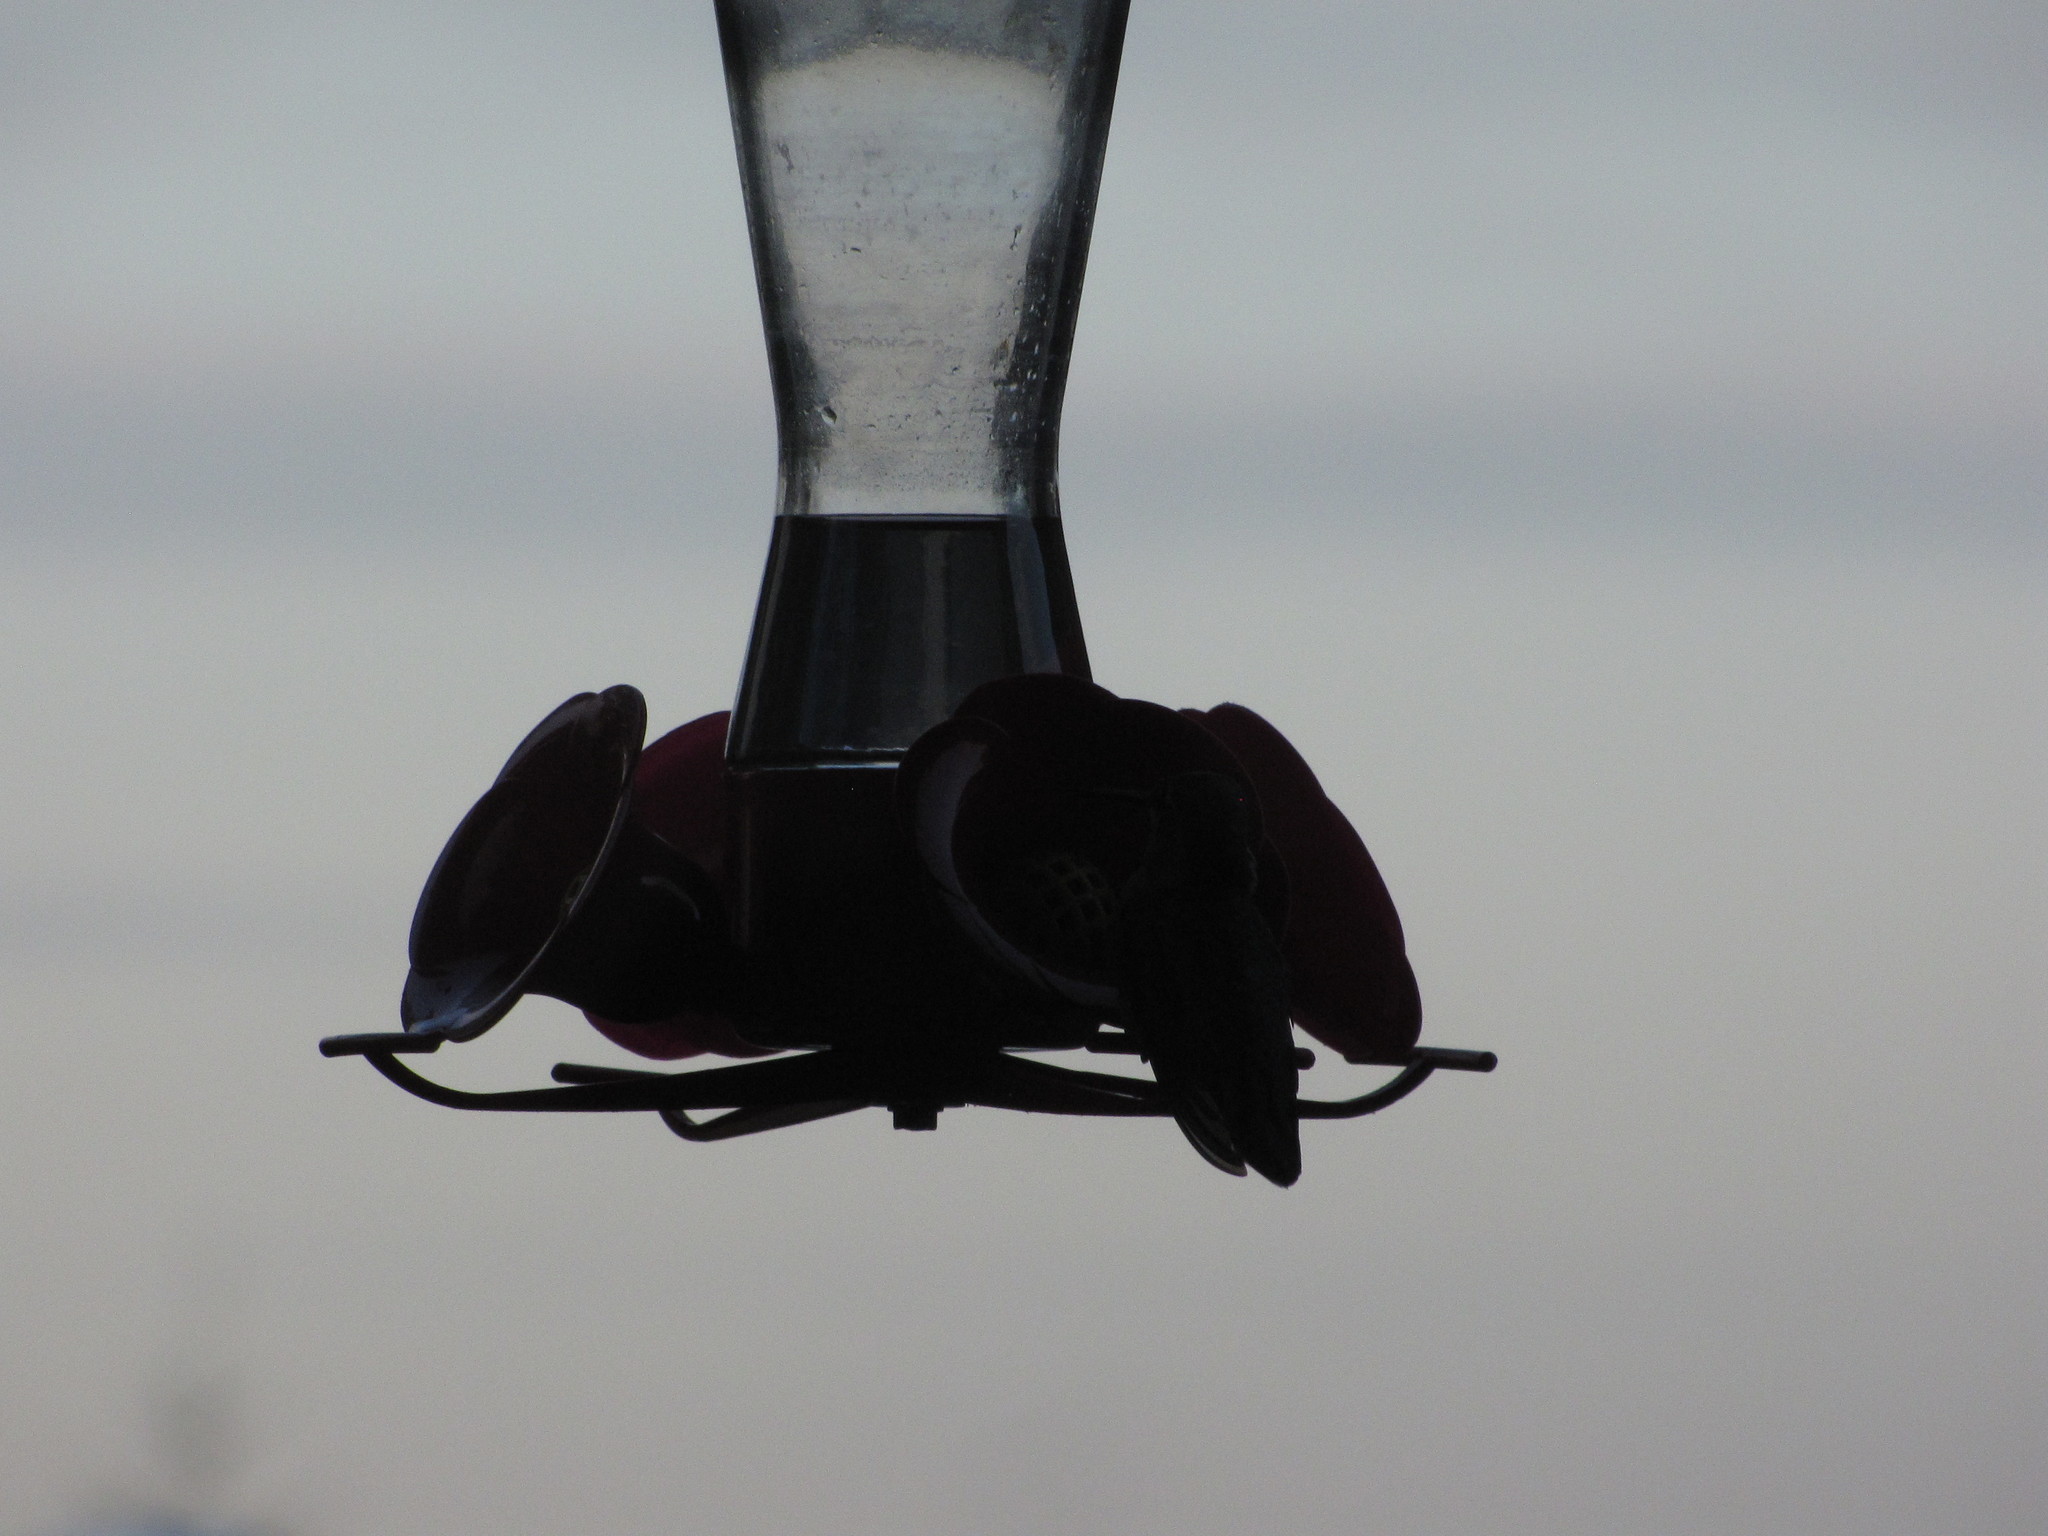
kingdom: Animalia
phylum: Chordata
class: Aves
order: Apodiformes
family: Trochilidae
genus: Calypte
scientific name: Calypte anna
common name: Anna's hummingbird
